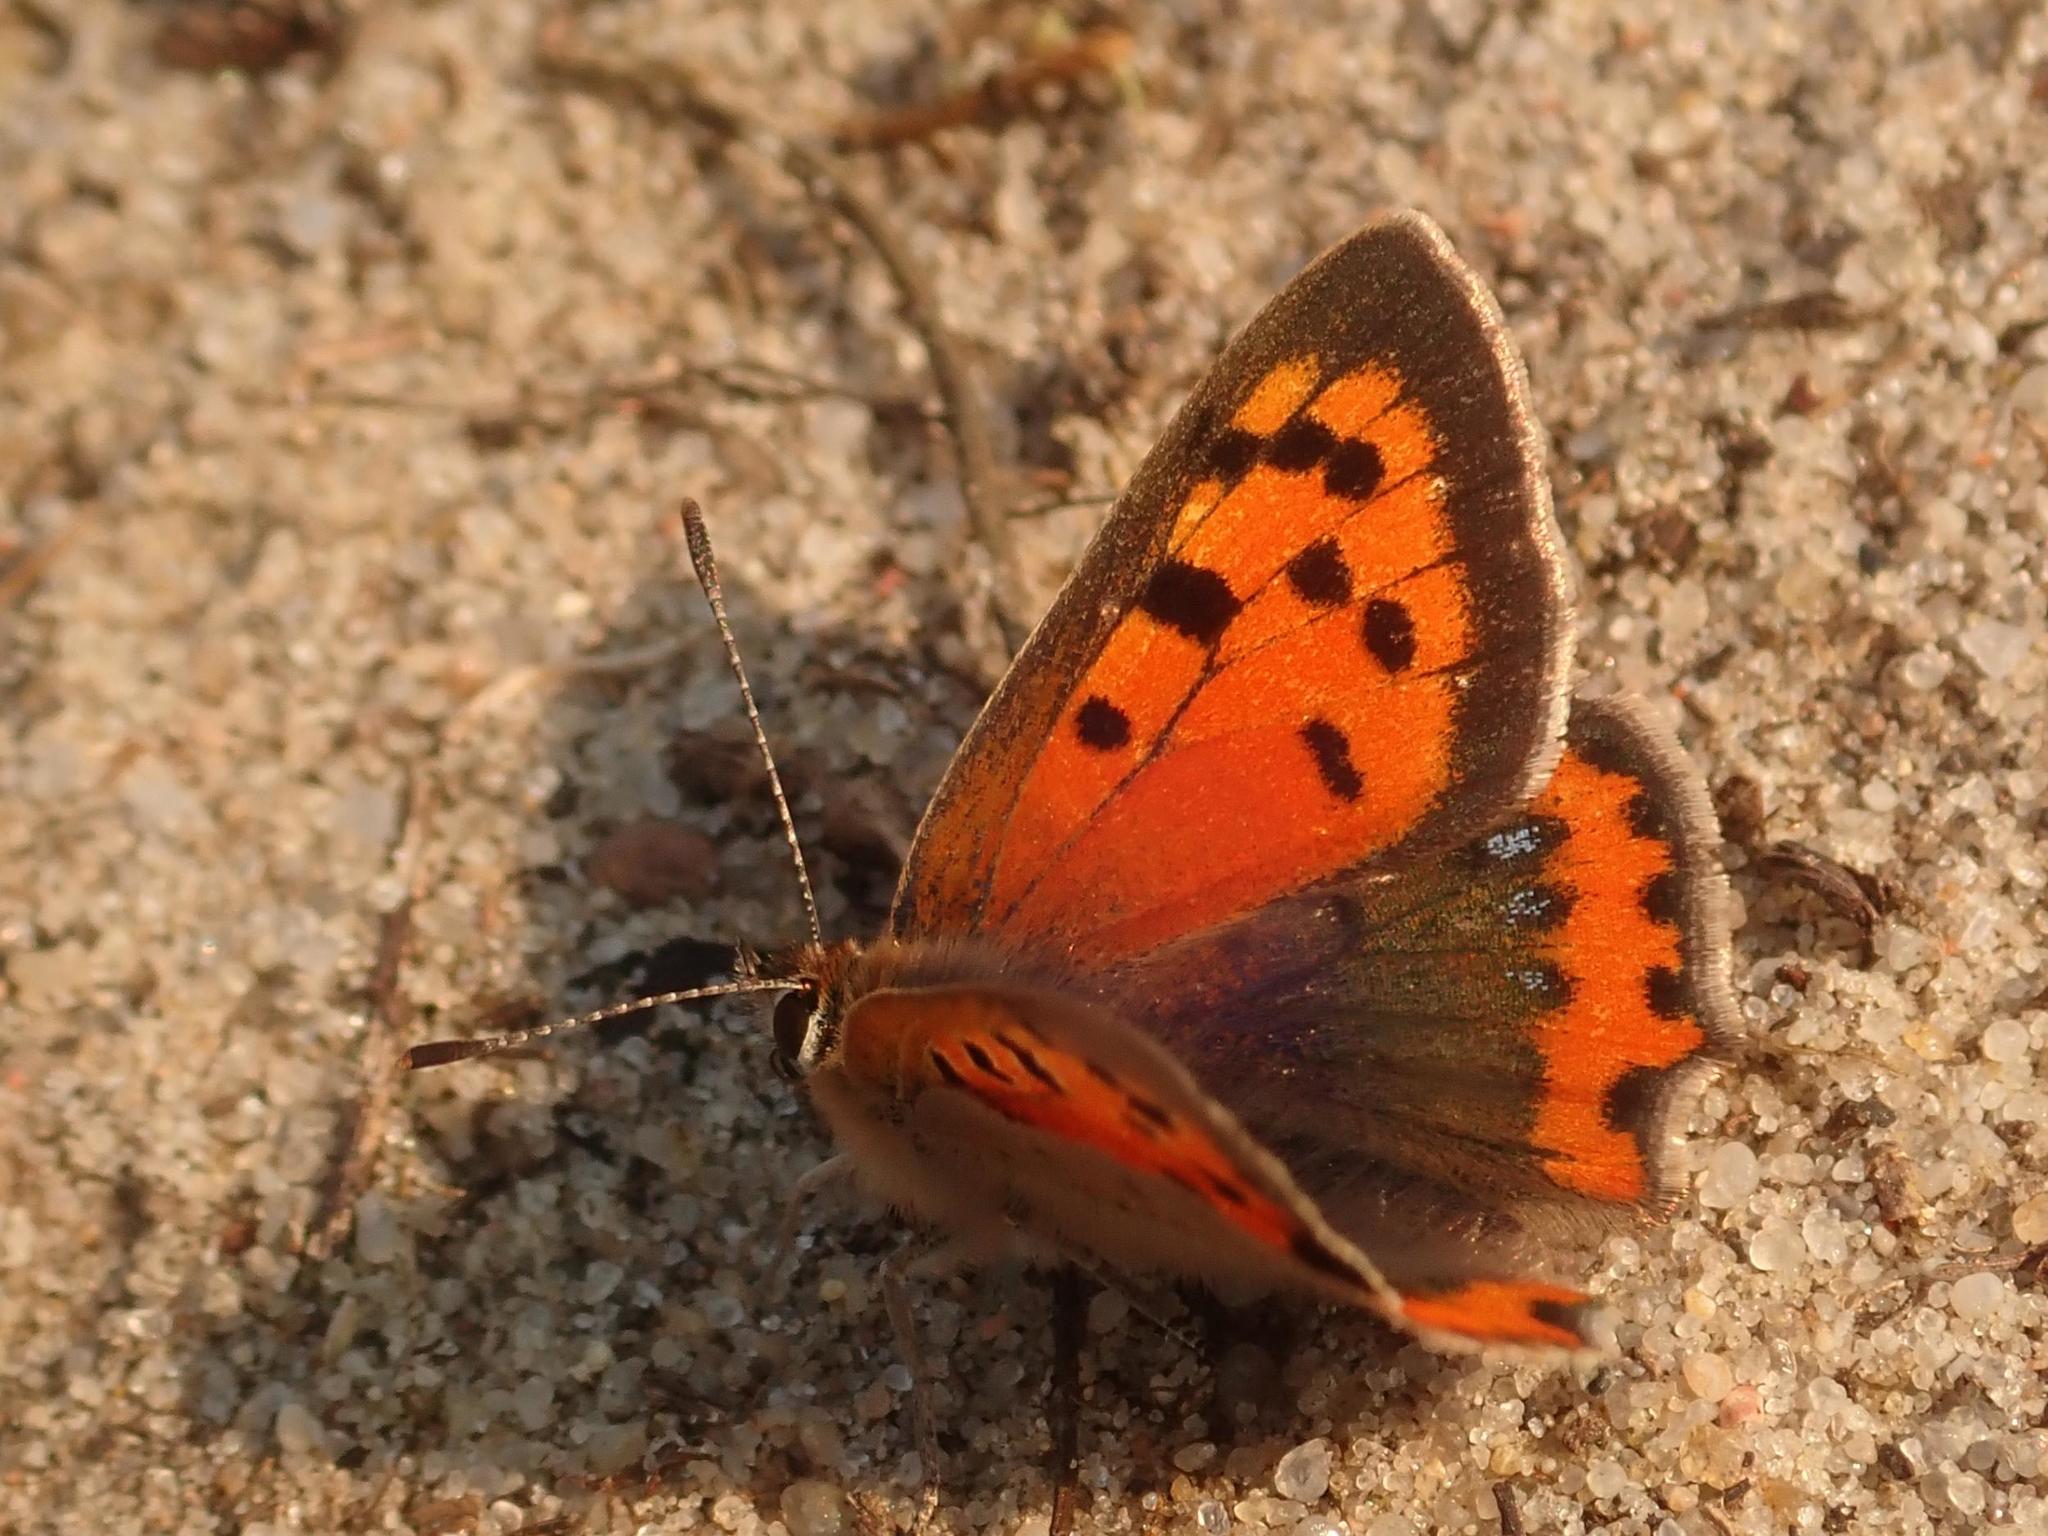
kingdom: Animalia
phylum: Arthropoda
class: Insecta
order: Lepidoptera
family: Lycaenidae
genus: Lycaena
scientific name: Lycaena phlaeas
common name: Small copper
